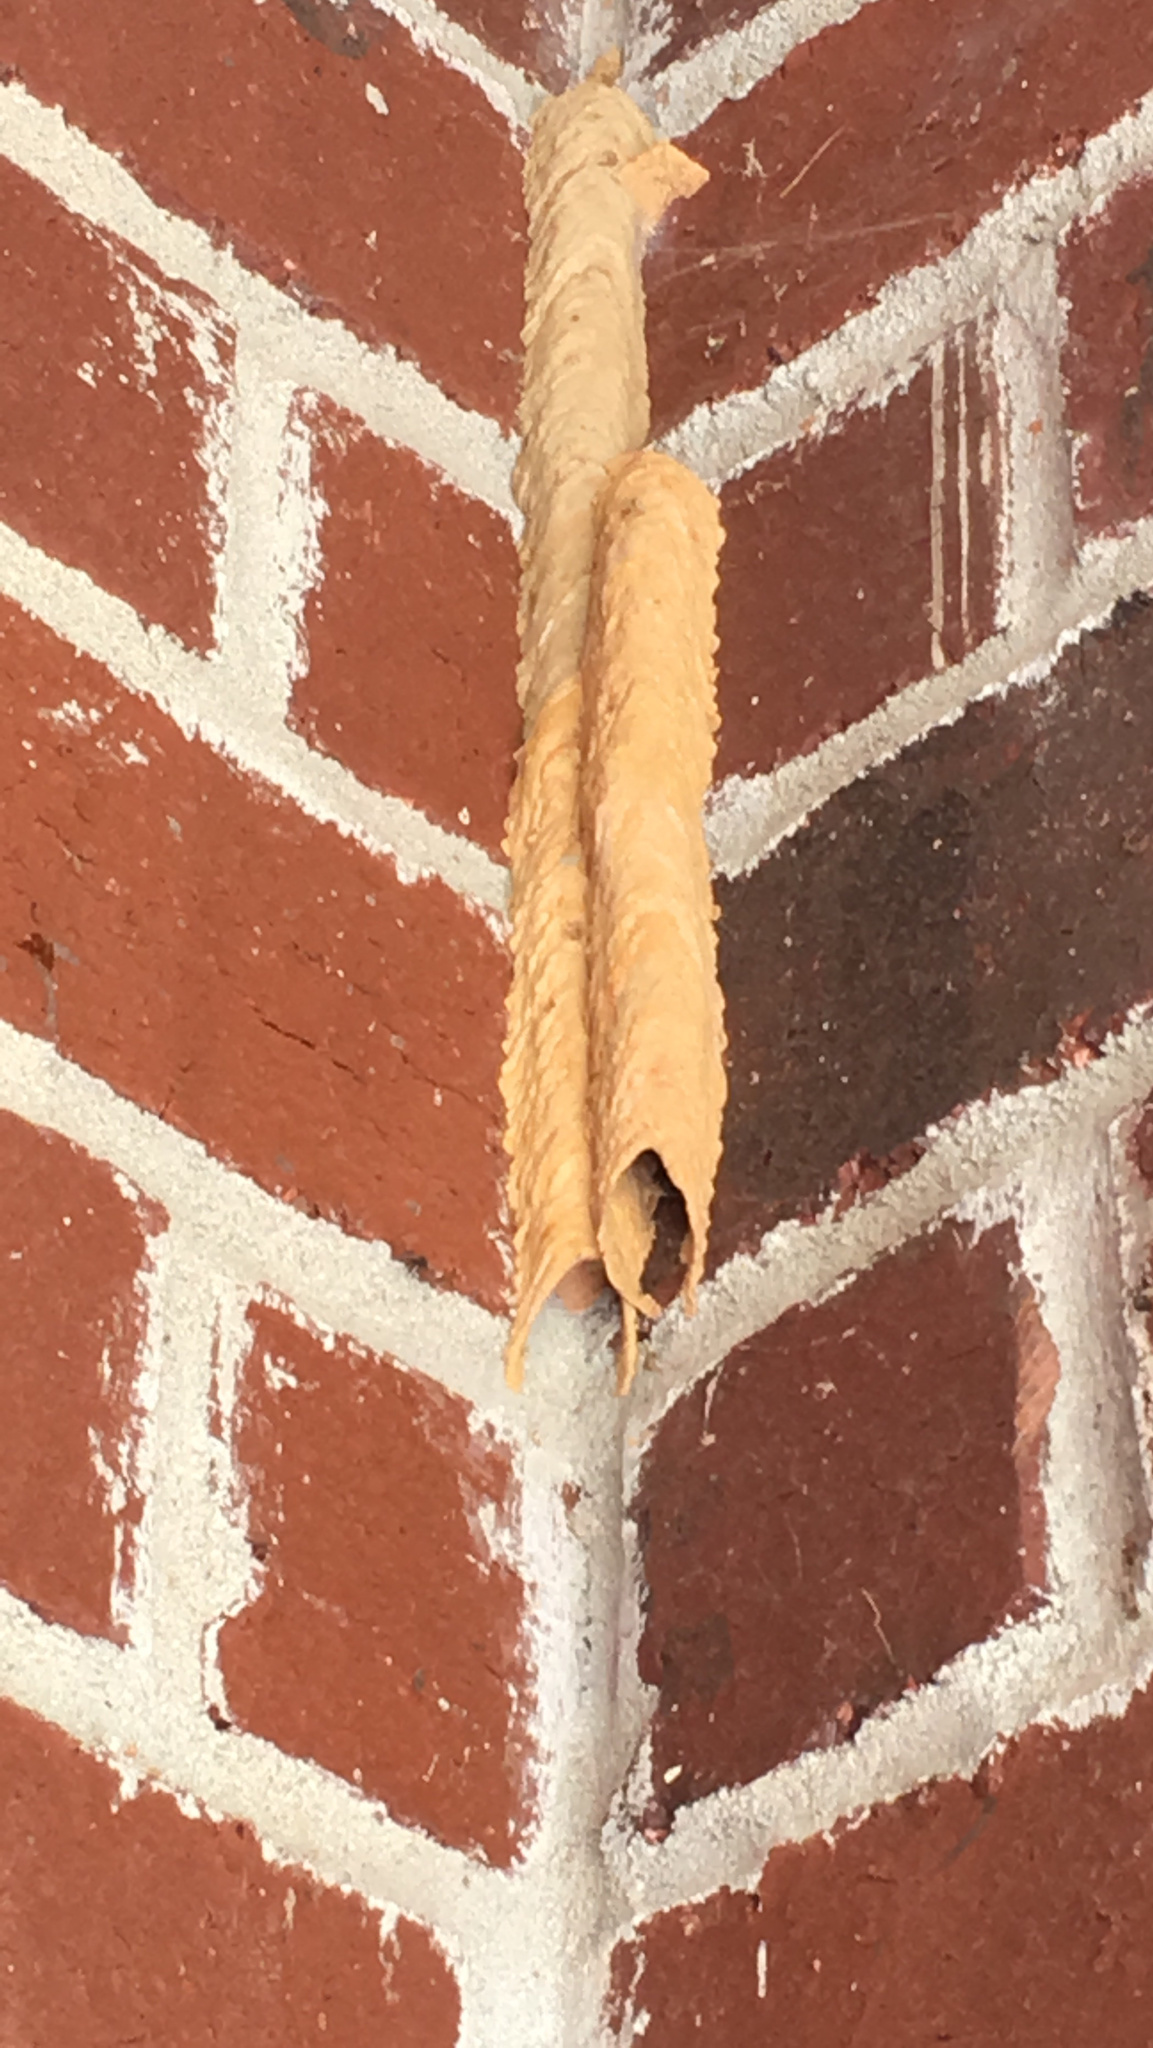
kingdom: Animalia
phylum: Arthropoda
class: Insecta
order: Hymenoptera
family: Crabronidae
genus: Trypoxylon
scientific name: Trypoxylon politum
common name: Organ-pipe mud-dauber wasp
